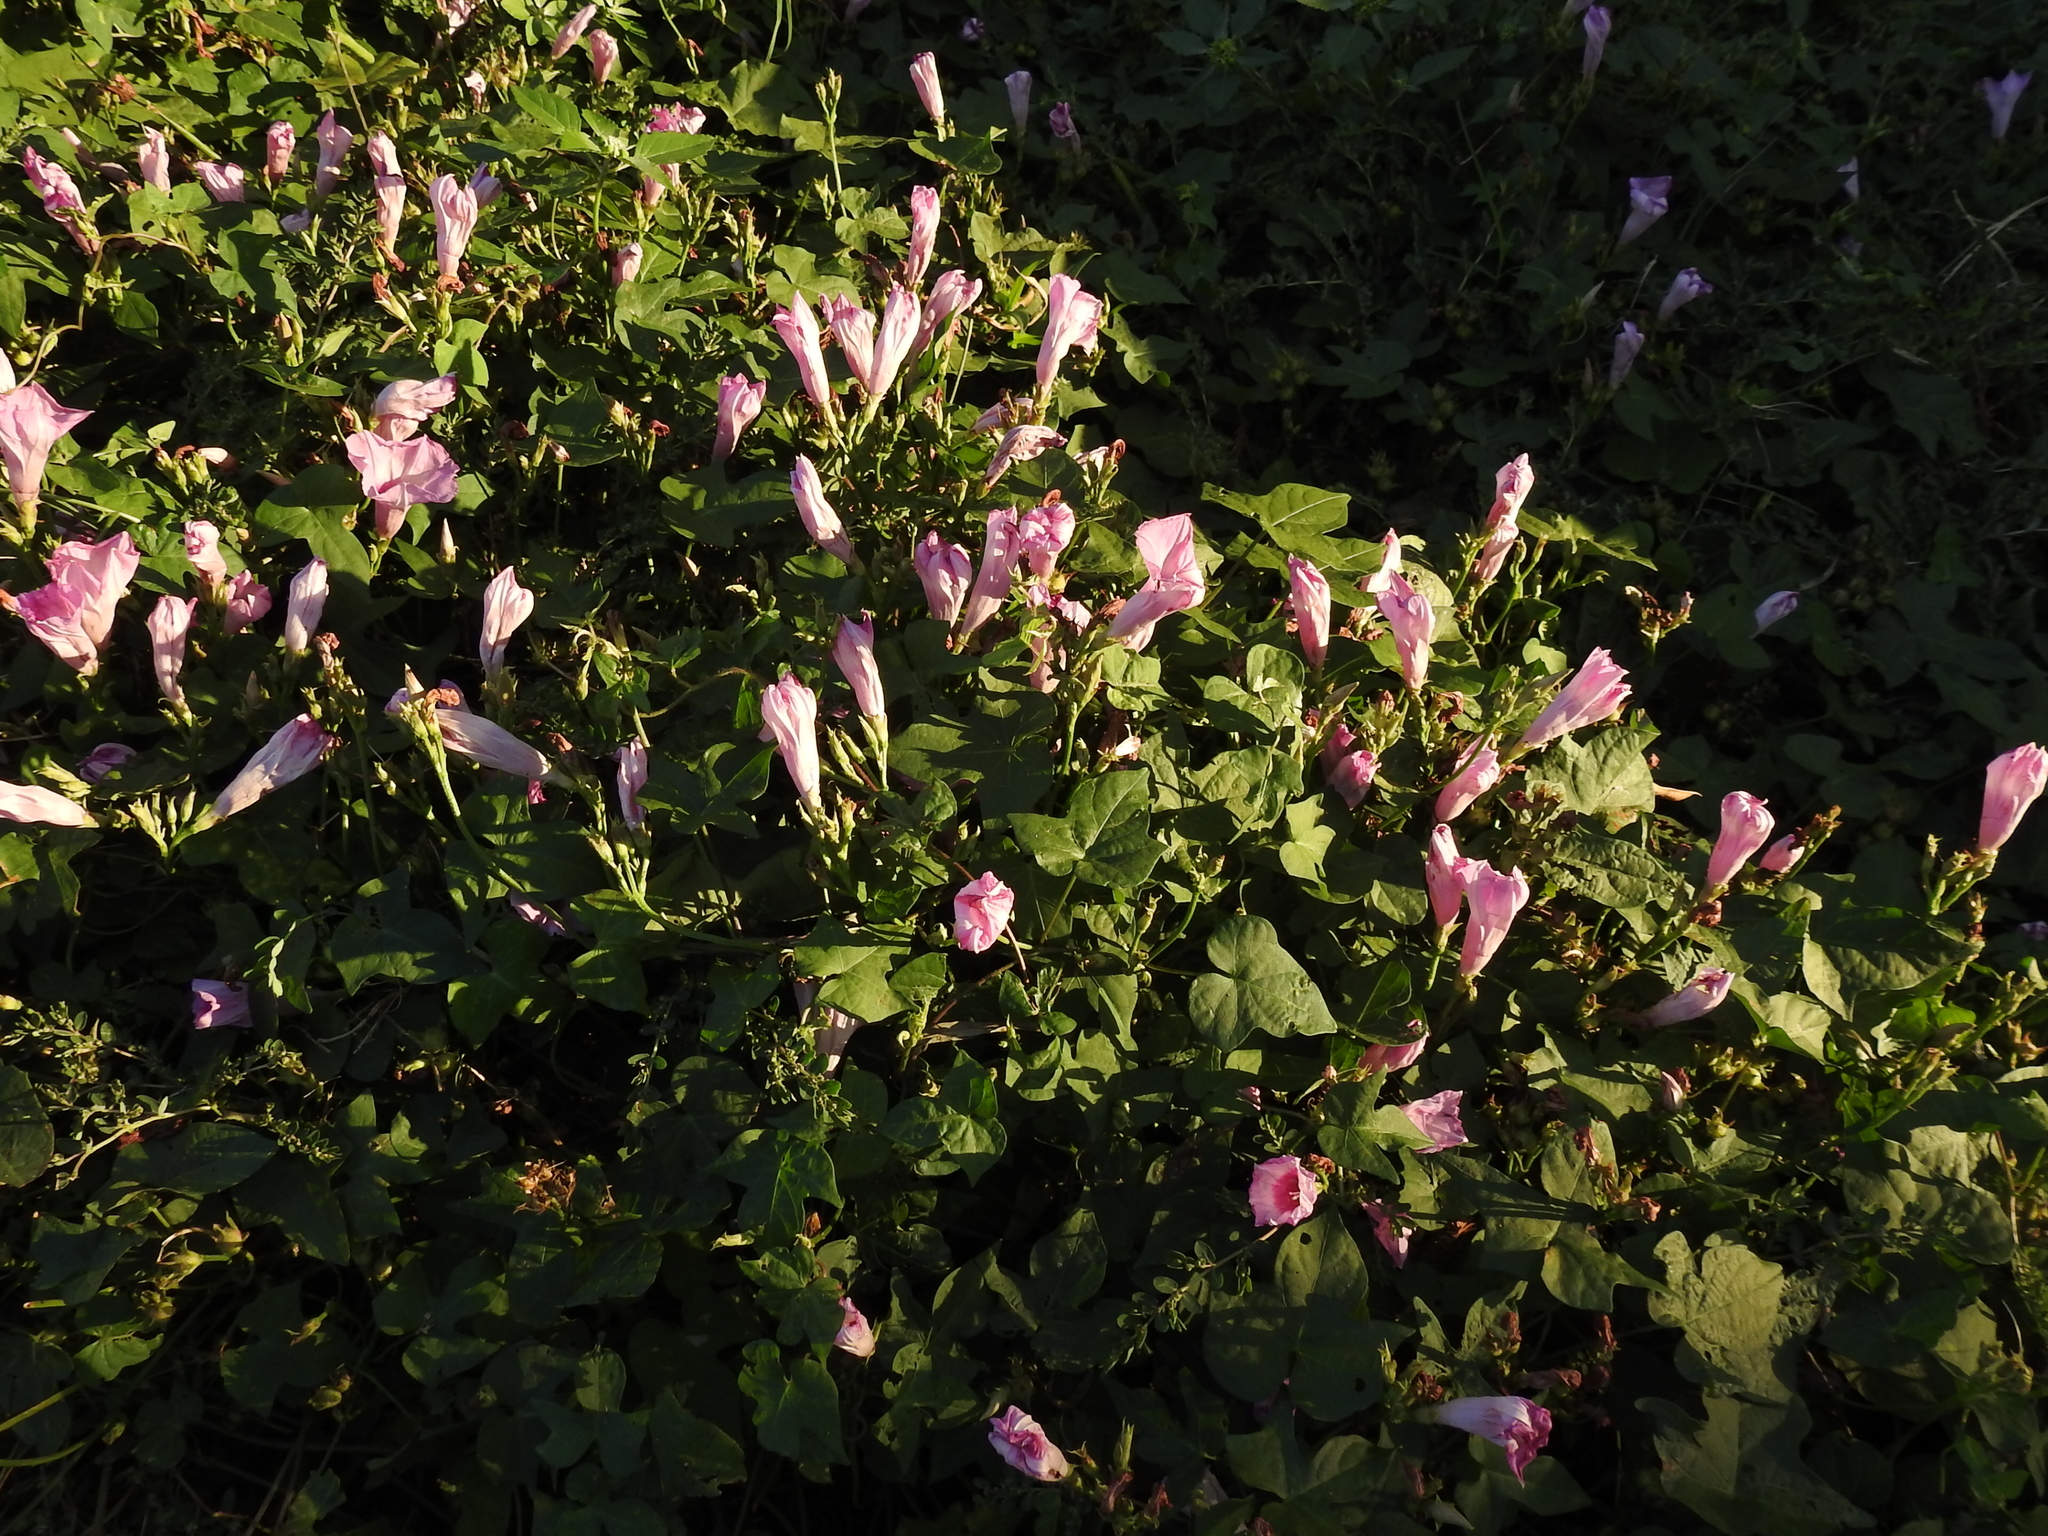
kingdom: Plantae
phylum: Tracheophyta
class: Magnoliopsida
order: Solanales
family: Convolvulaceae
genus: Ipomoea
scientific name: Ipomoea cordatotriloba
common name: Cotton morning glory
